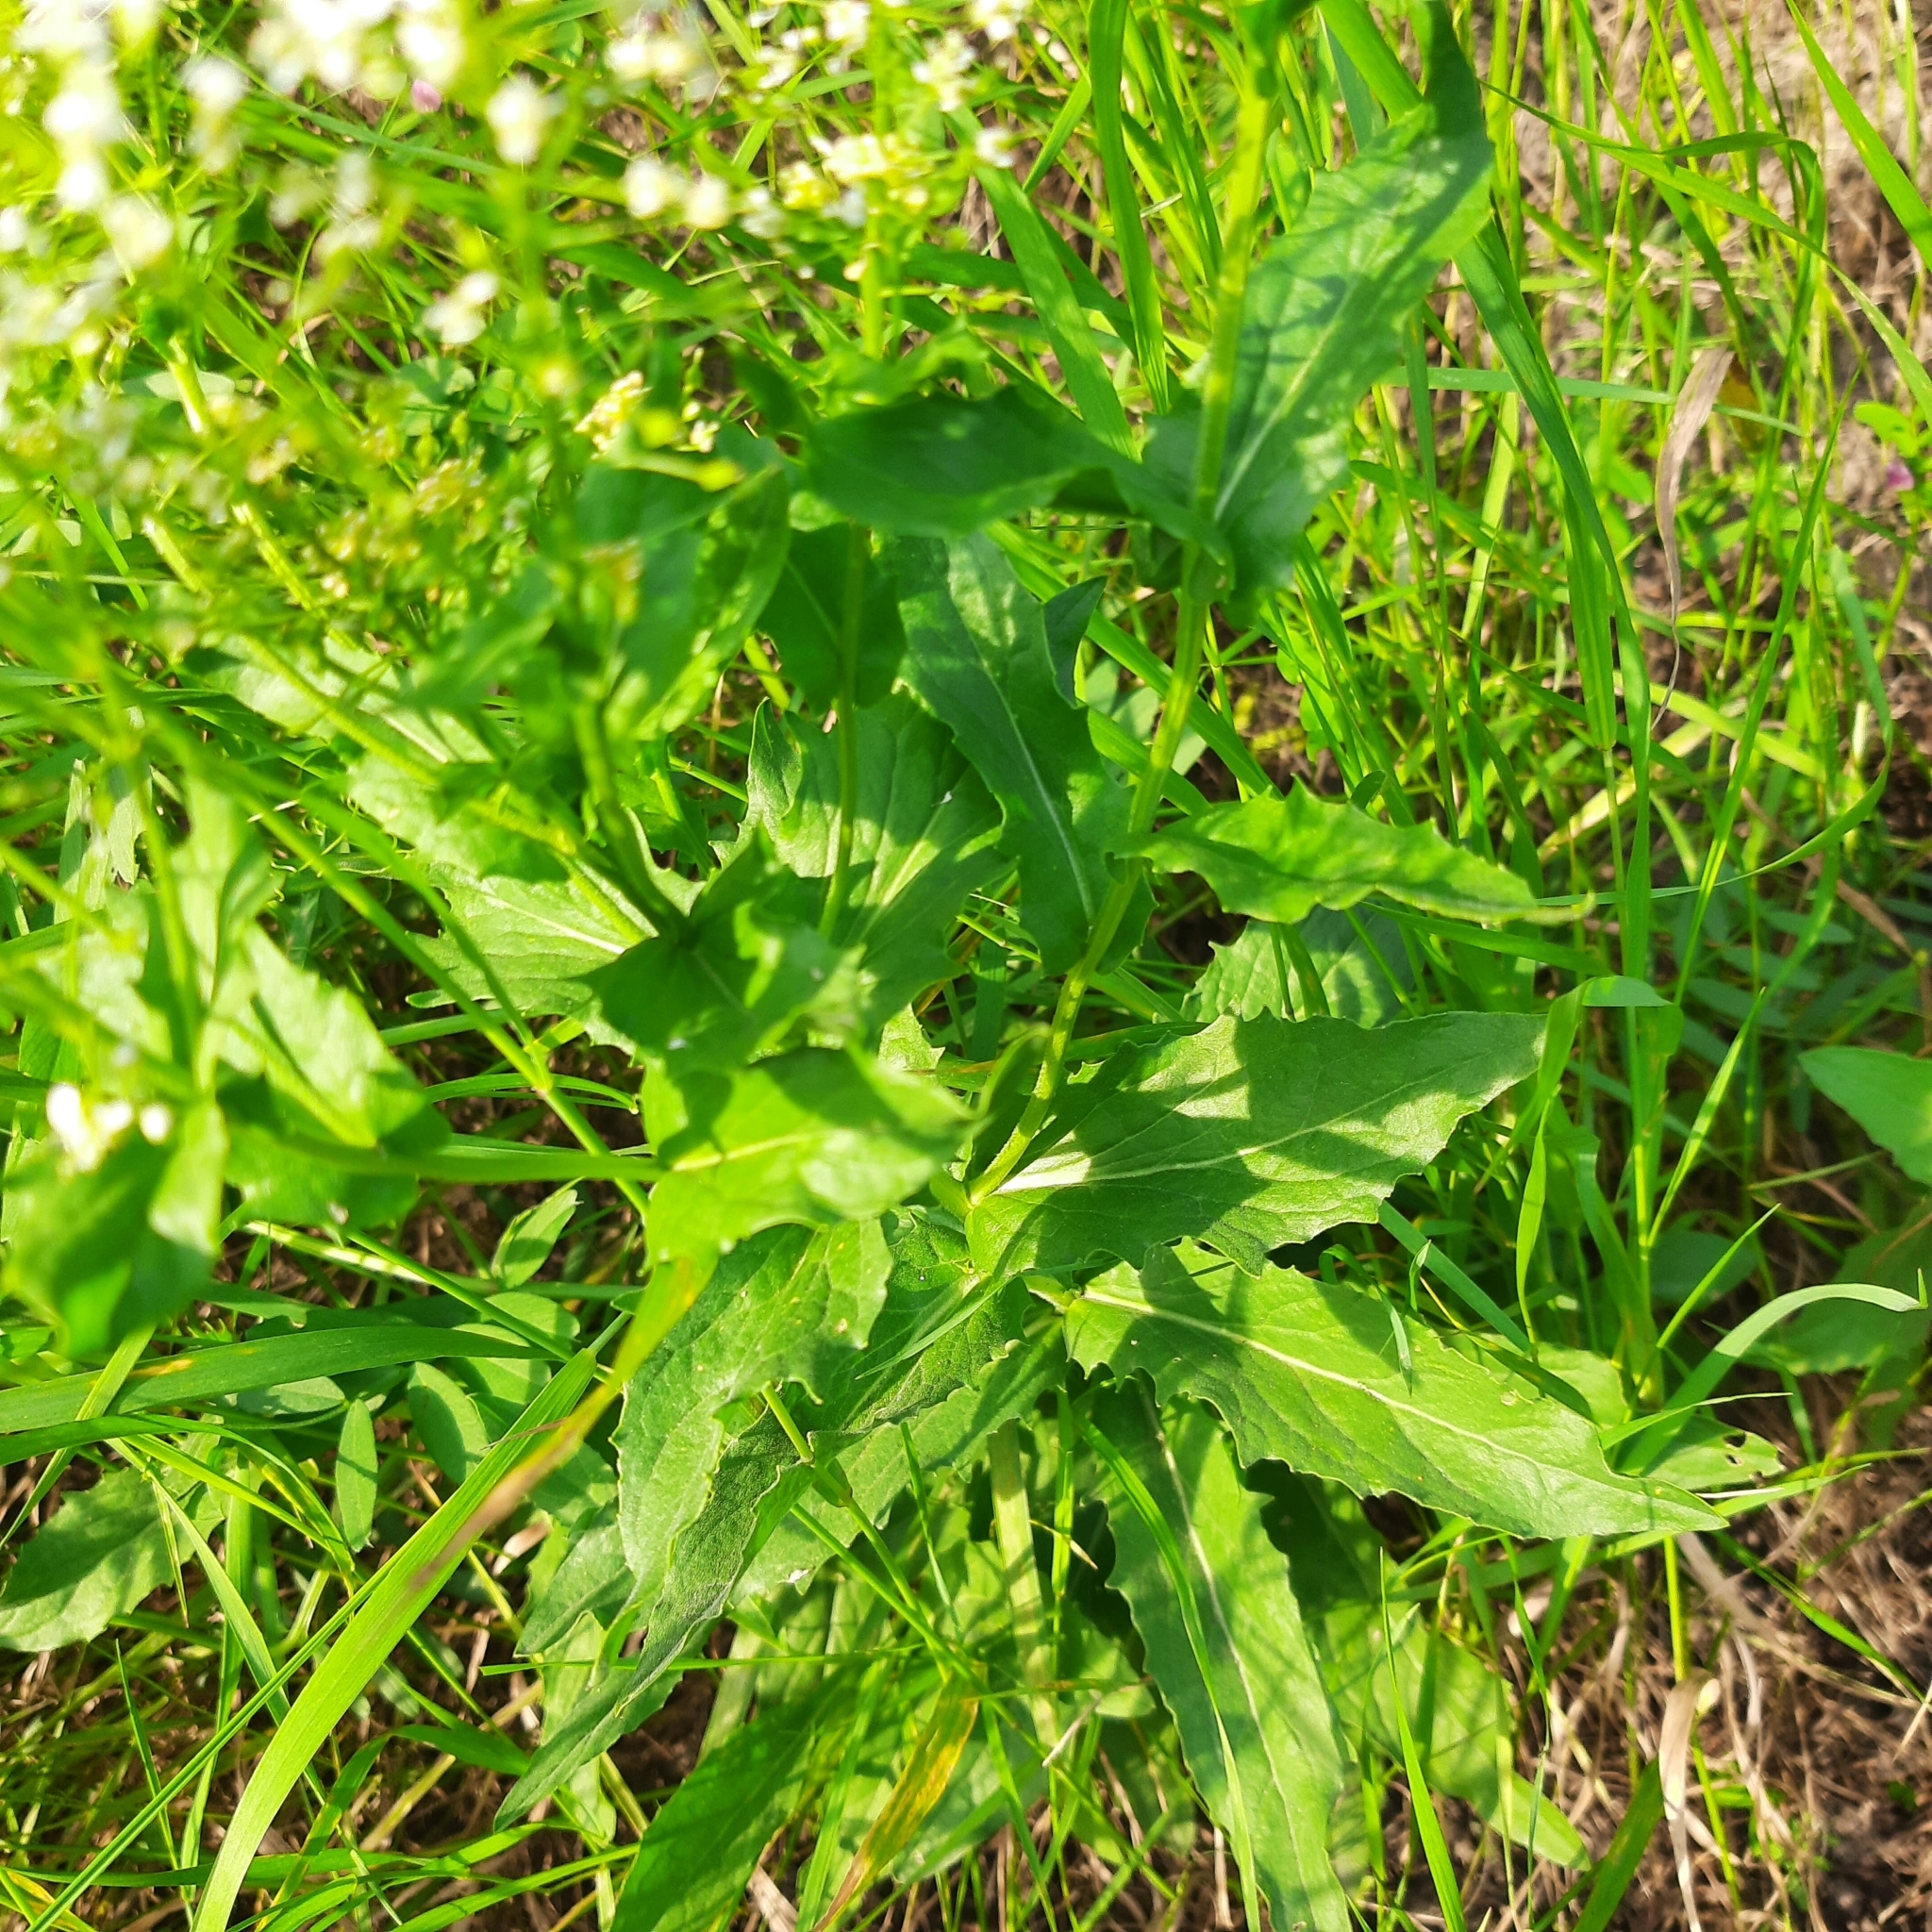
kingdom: Plantae
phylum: Tracheophyta
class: Magnoliopsida
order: Brassicales
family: Brassicaceae
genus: Lepidium
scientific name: Lepidium draba
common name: Hoary cress
